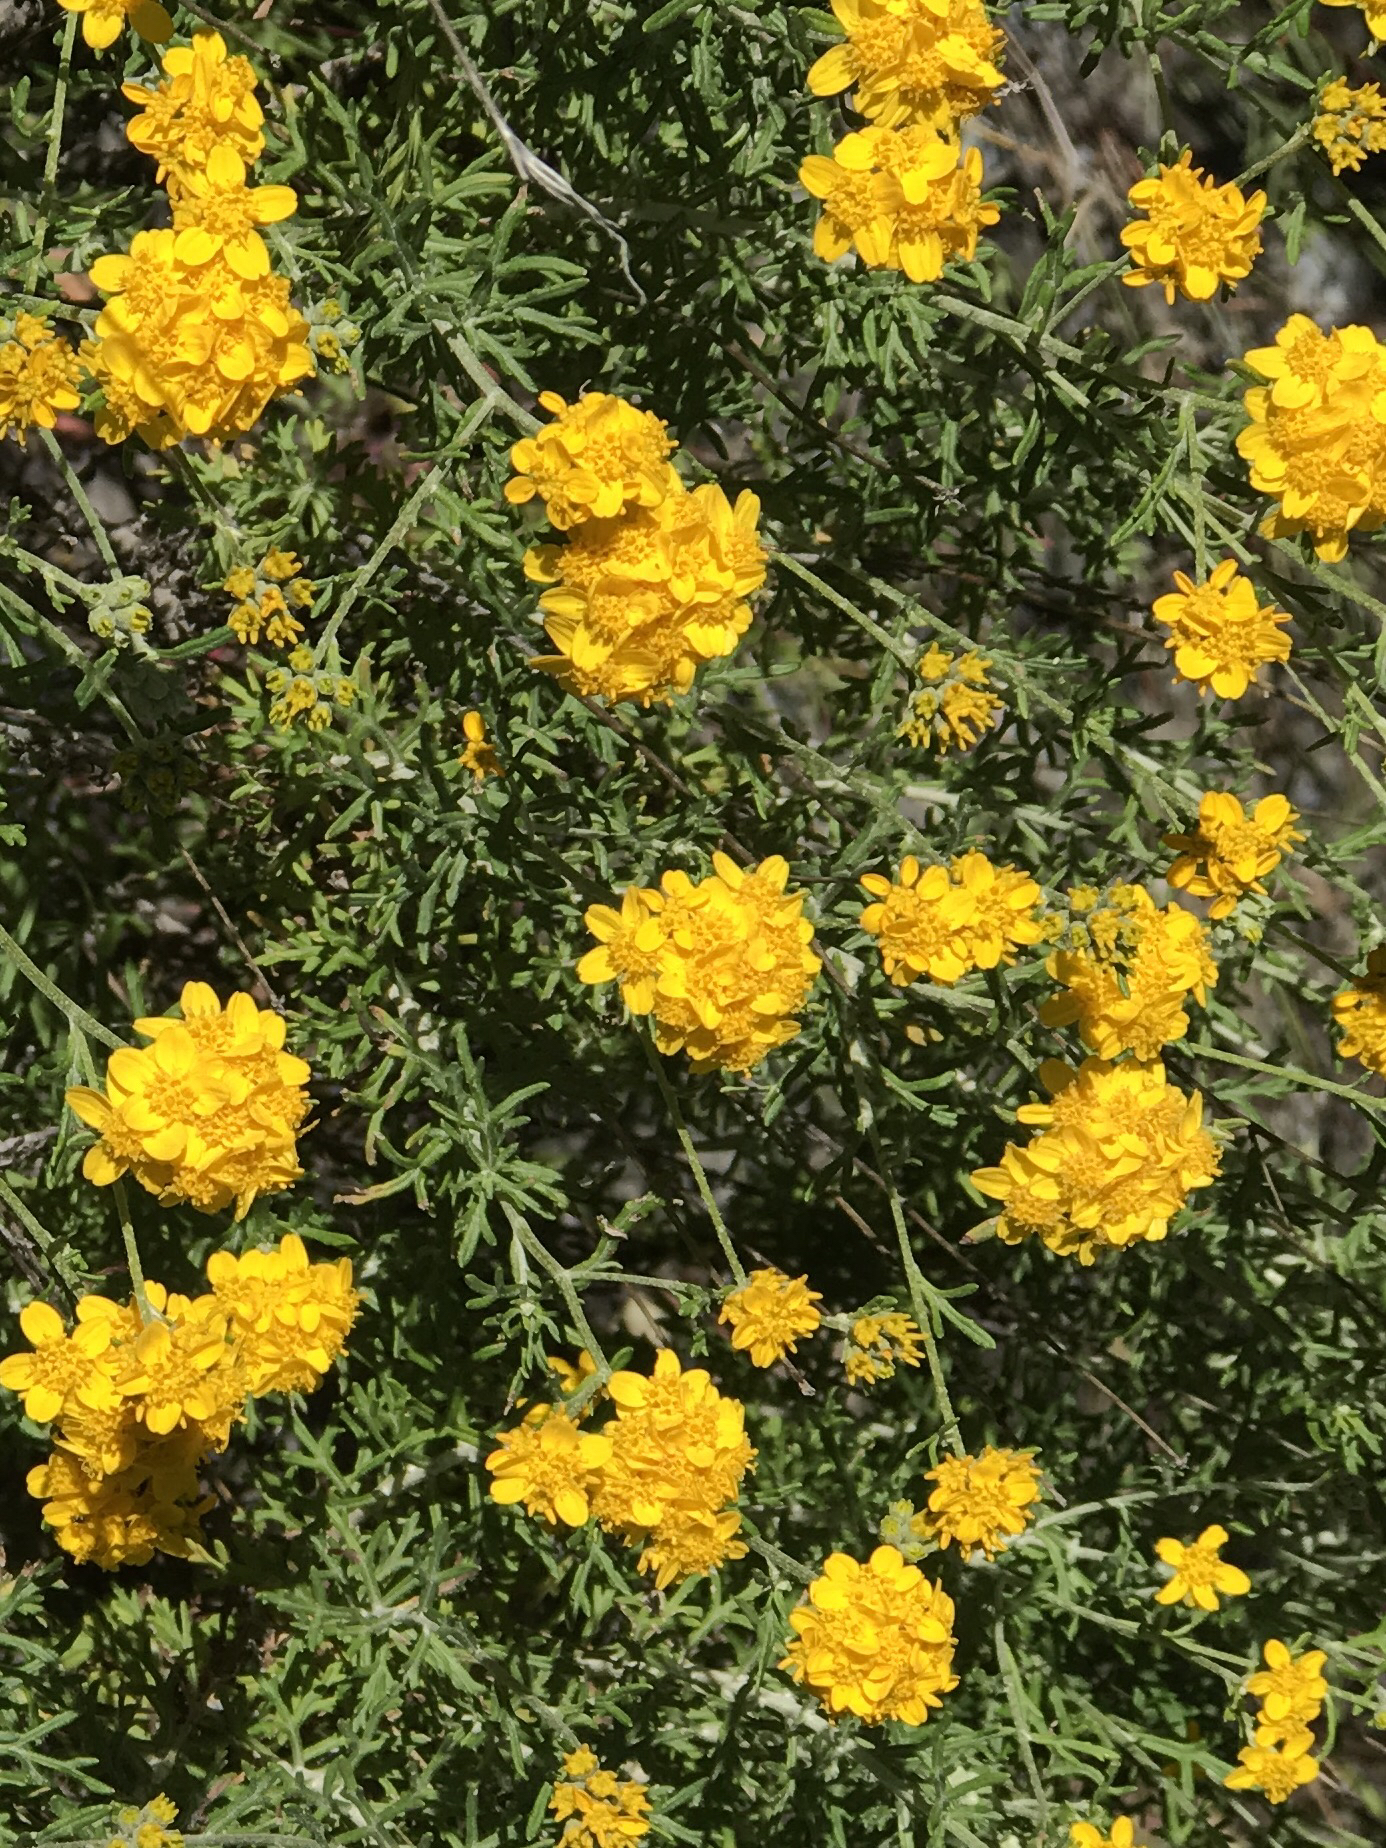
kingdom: Plantae
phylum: Tracheophyta
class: Magnoliopsida
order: Asterales
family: Asteraceae
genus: Eriophyllum
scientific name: Eriophyllum confertiflorum
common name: Golden-yarrow
